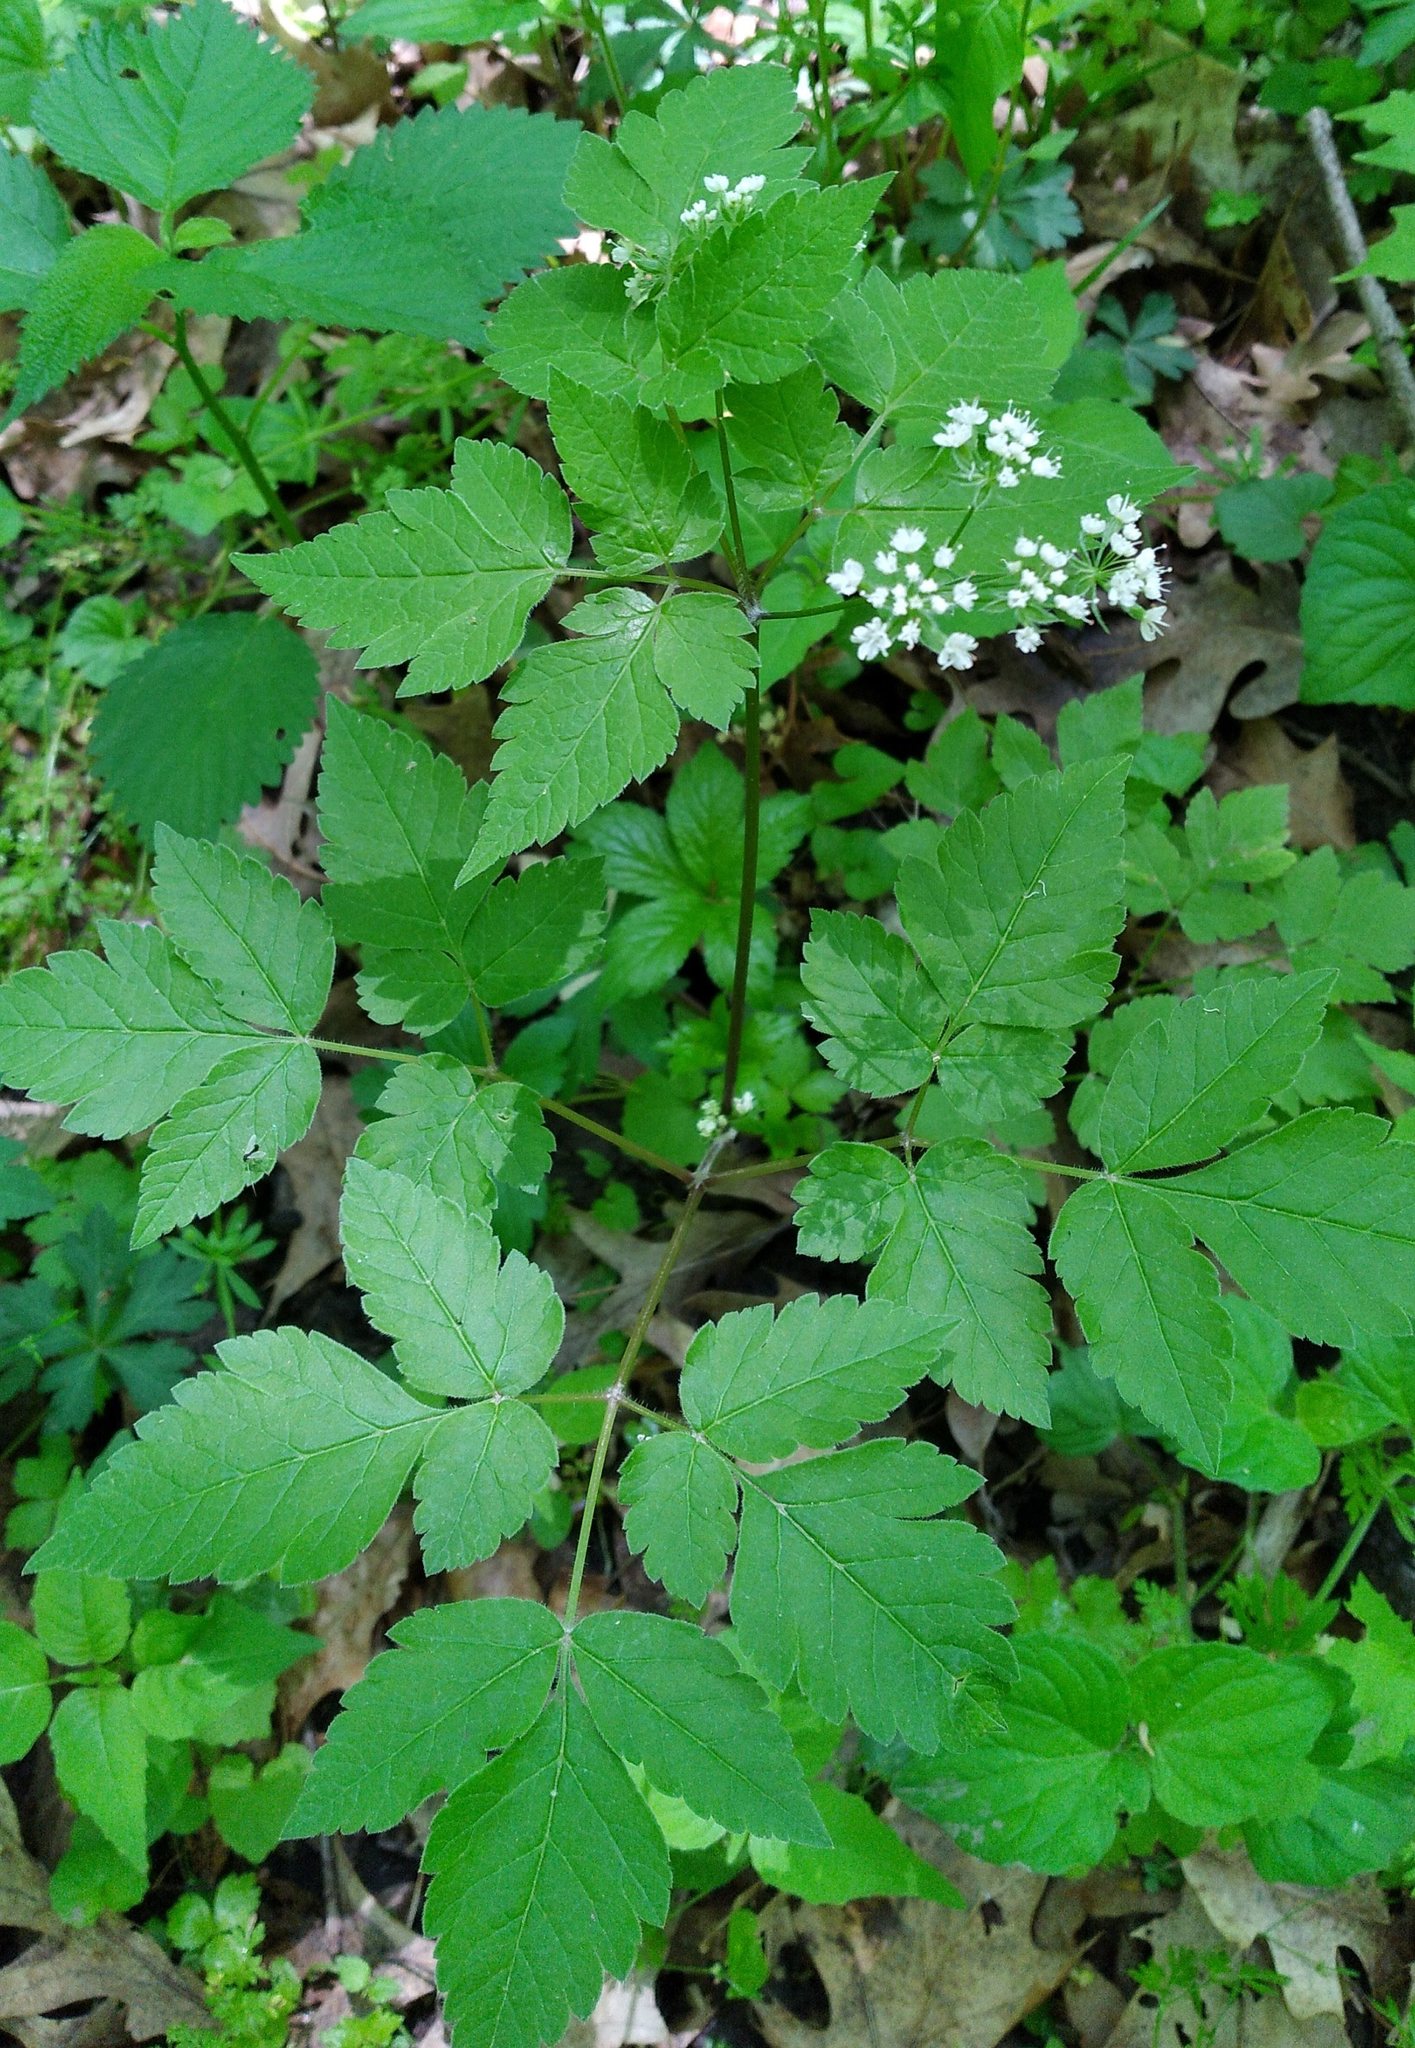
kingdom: Plantae
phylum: Tracheophyta
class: Magnoliopsida
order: Apiales
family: Apiaceae
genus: Osmorhiza
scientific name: Osmorhiza longistylis
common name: Smooth sweet cicely
